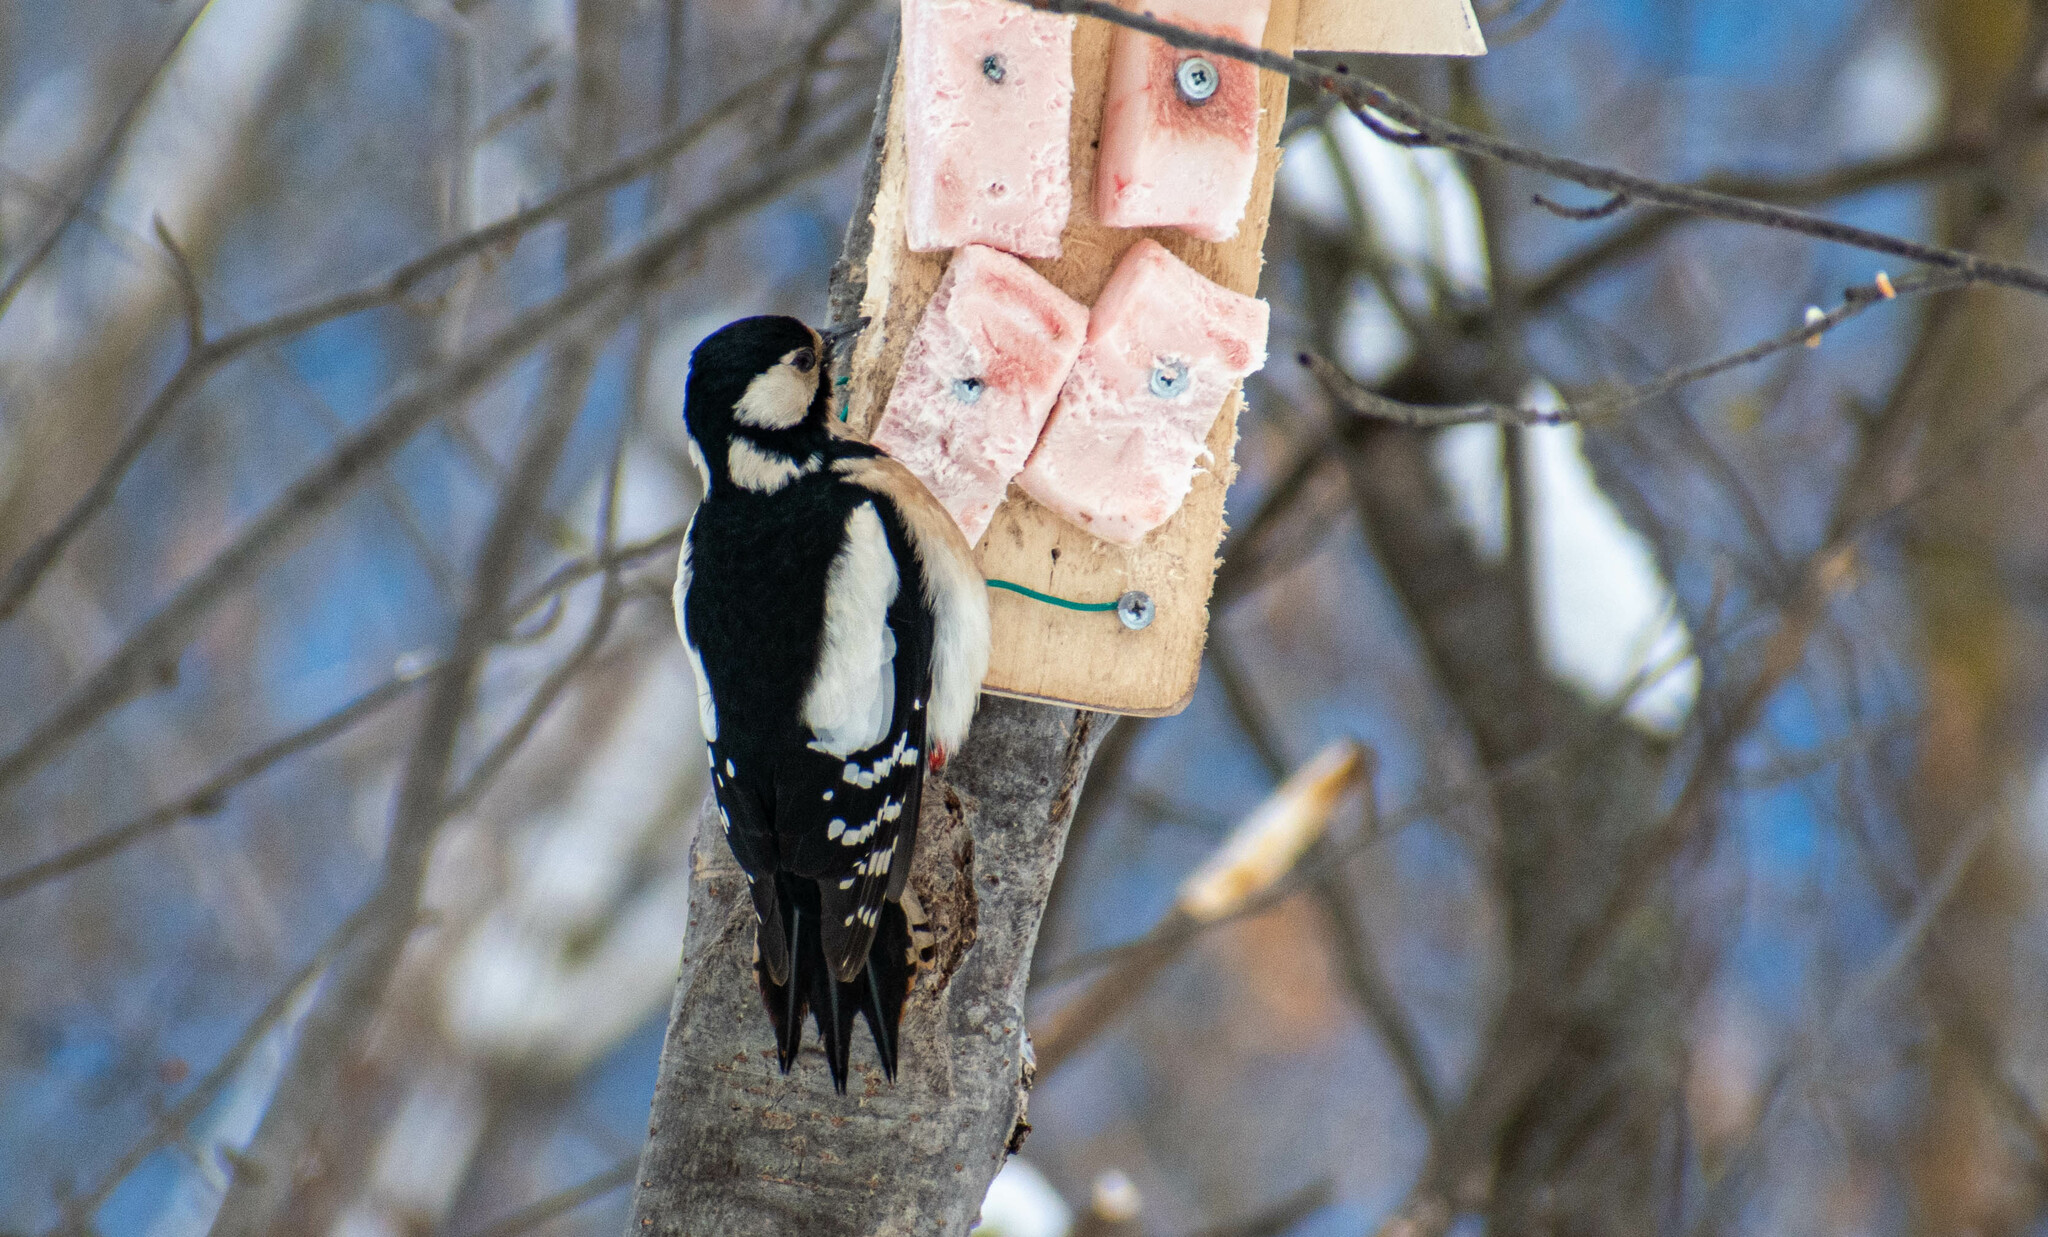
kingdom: Animalia
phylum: Chordata
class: Aves
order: Piciformes
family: Picidae
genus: Dendrocopos
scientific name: Dendrocopos major
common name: Great spotted woodpecker
